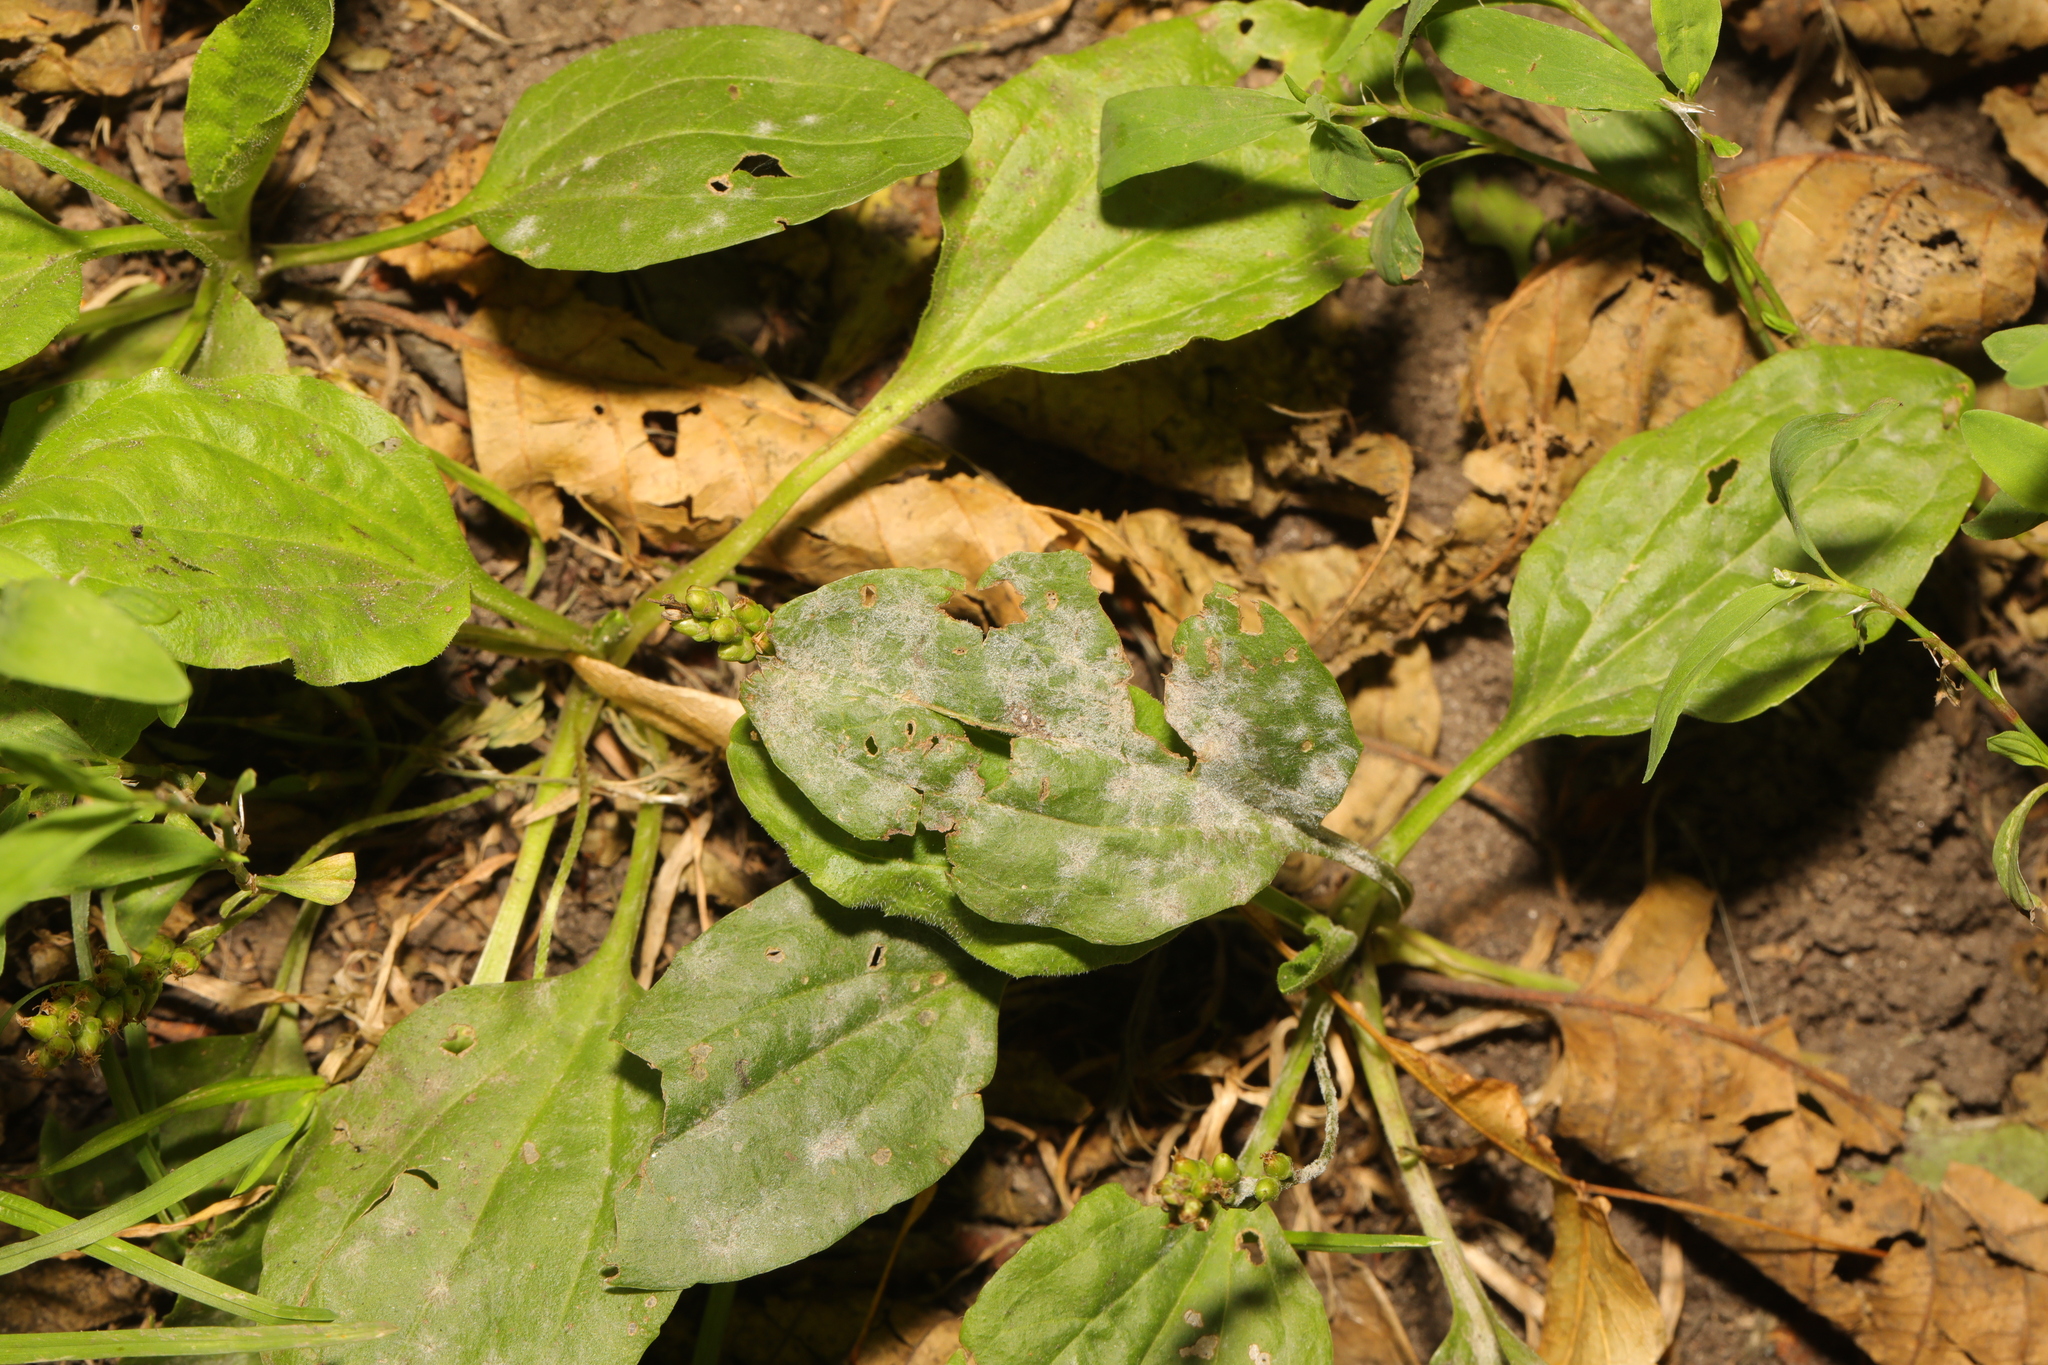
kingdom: Plantae
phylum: Tracheophyta
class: Magnoliopsida
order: Lamiales
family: Plantaginaceae
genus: Plantago
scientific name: Plantago major
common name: Common plantain
